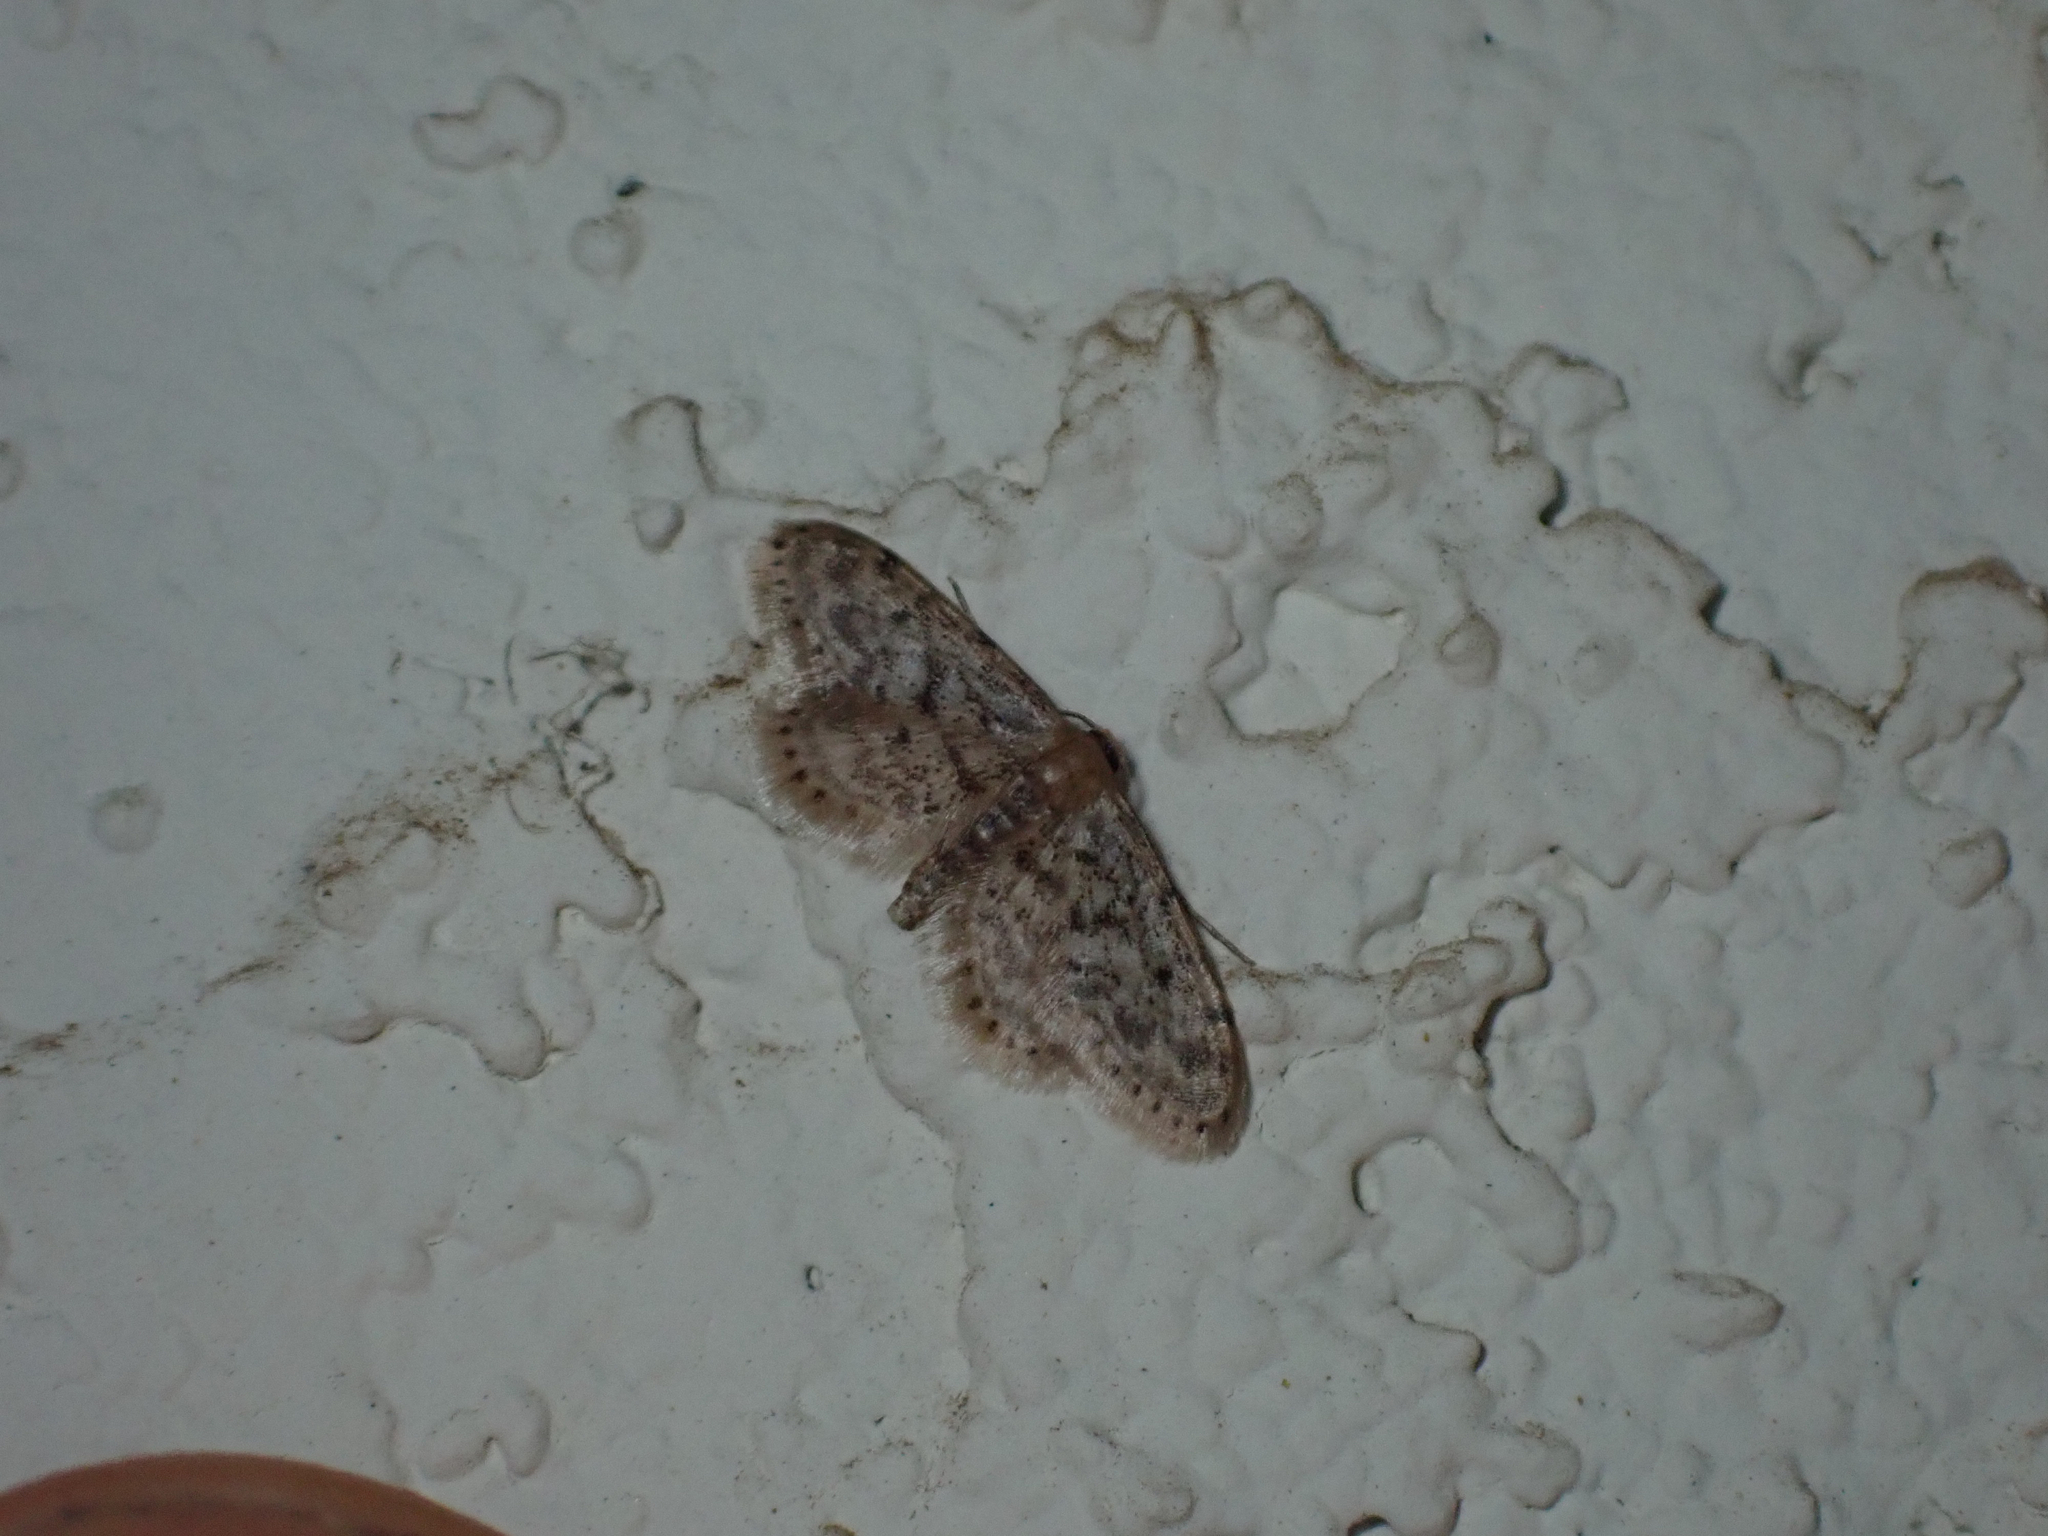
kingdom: Animalia
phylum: Arthropoda
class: Insecta
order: Lepidoptera
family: Geometridae
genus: Idaea
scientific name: Idaea bonifata
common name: Fortunate wave
